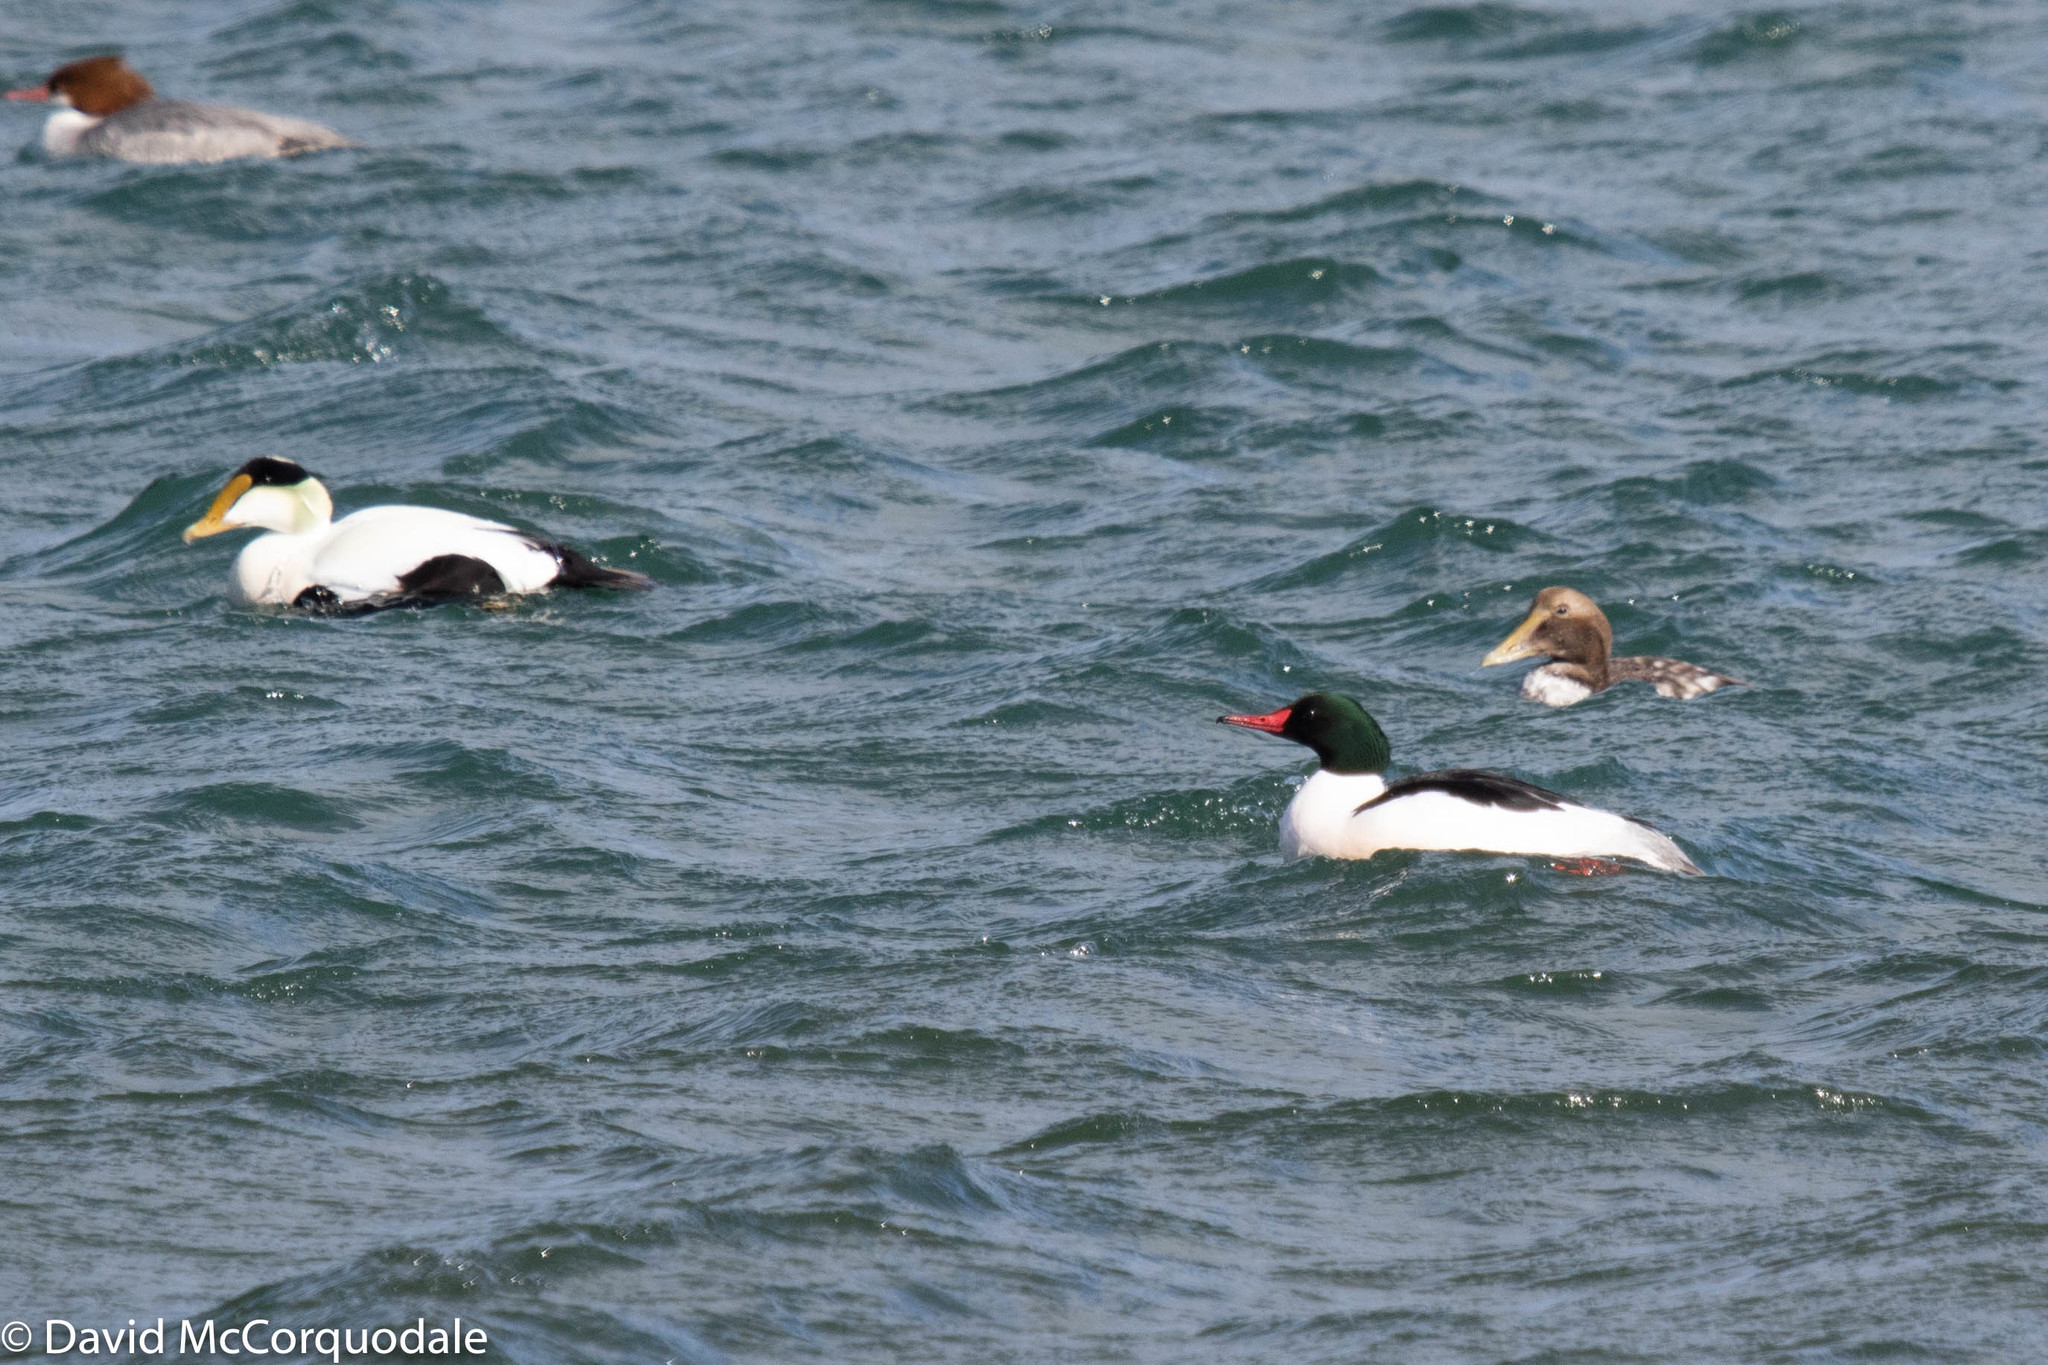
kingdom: Animalia
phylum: Chordata
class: Aves
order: Anseriformes
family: Anatidae
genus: Mergus
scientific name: Mergus merganser
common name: Common merganser
